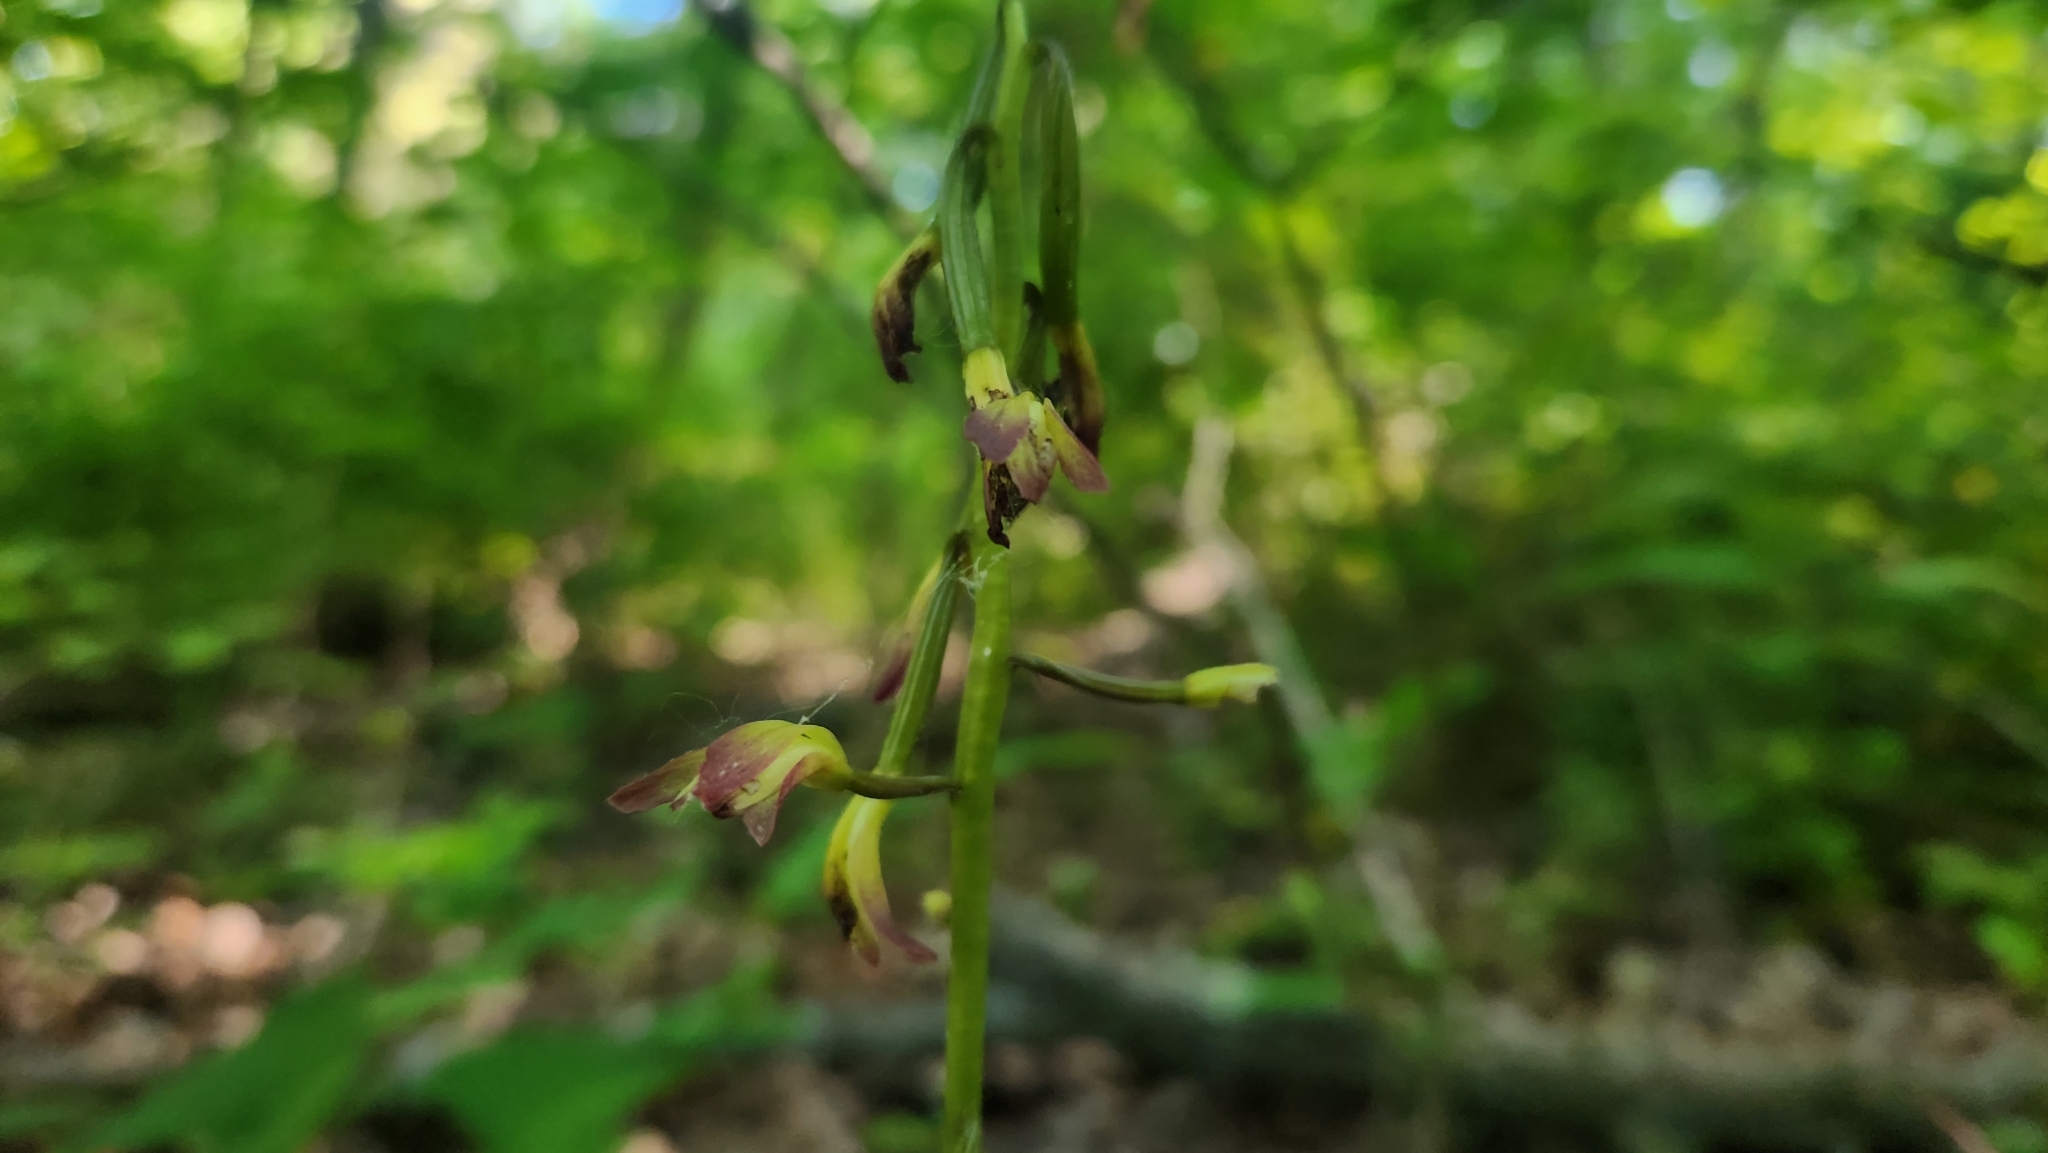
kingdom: Plantae
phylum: Tracheophyta
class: Liliopsida
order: Asparagales
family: Orchidaceae
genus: Aplectrum
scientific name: Aplectrum hyemale
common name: Adam-and-eve
